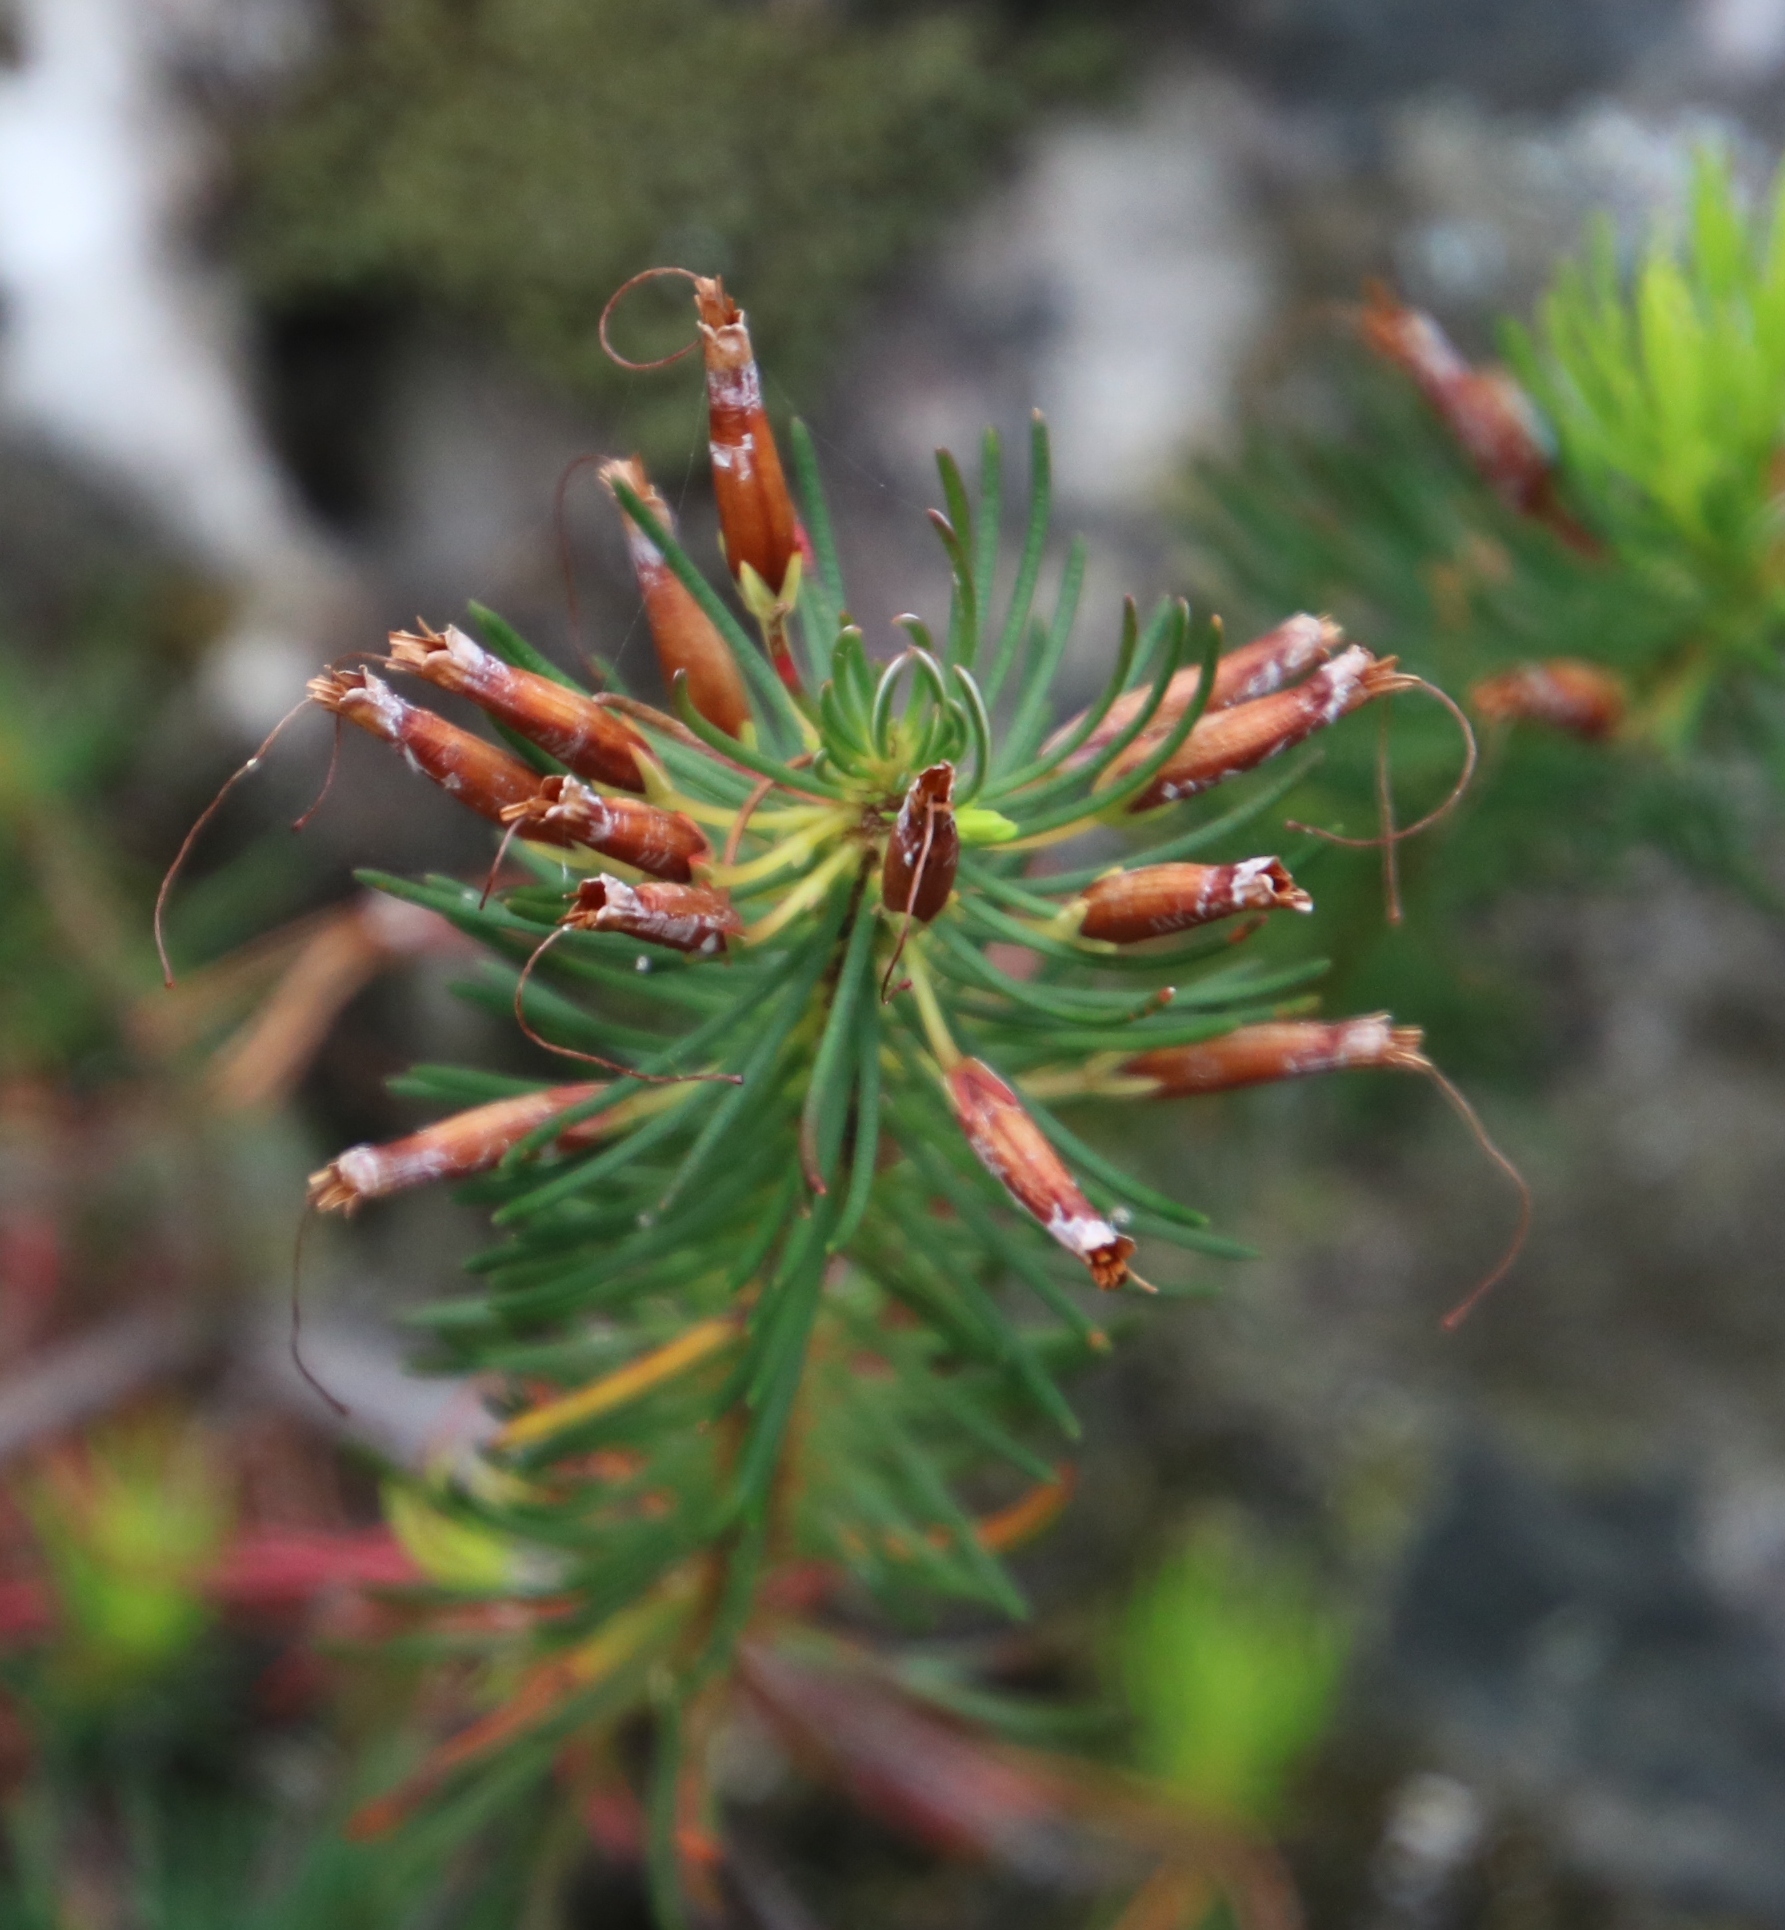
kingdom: Plantae
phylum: Tracheophyta
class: Magnoliopsida
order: Ericales
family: Ericaceae
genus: Erica
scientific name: Erica plukenetii
